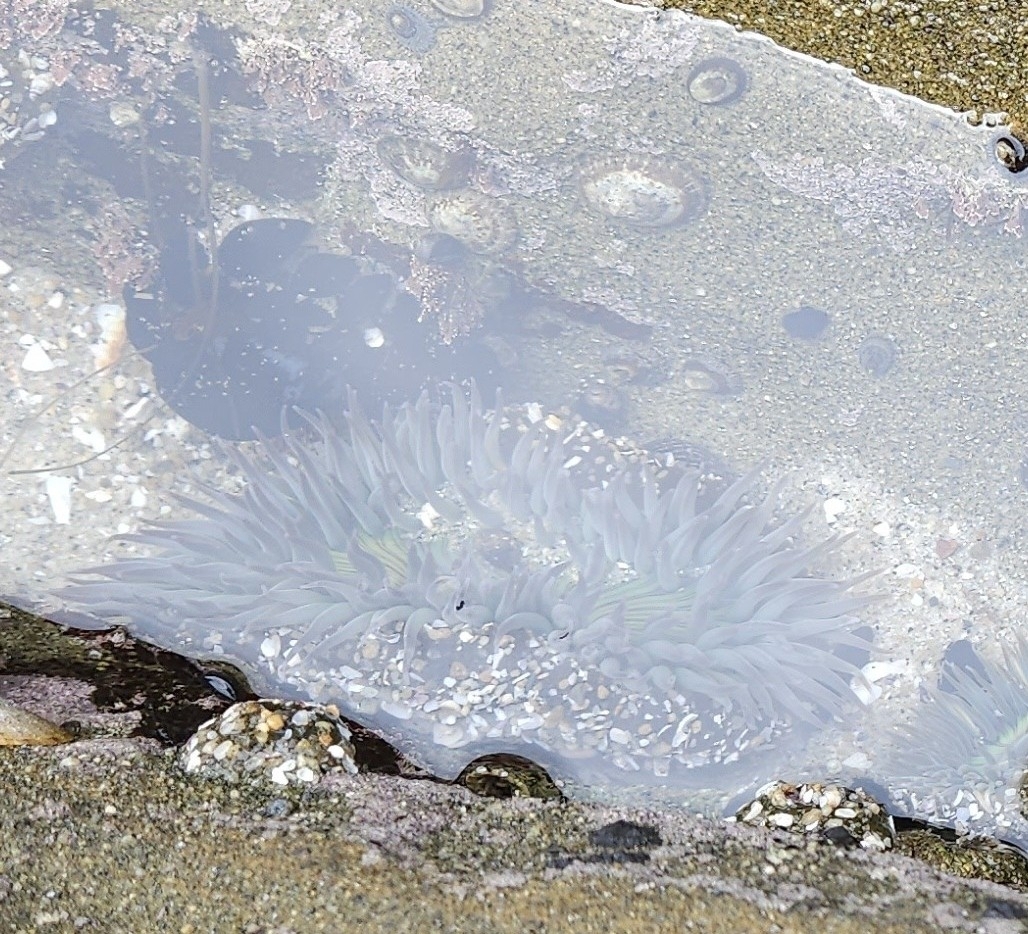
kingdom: Animalia
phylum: Cnidaria
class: Anthozoa
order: Actiniaria
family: Actiniidae
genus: Anthopleura
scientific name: Anthopleura sola
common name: Sun anemone
